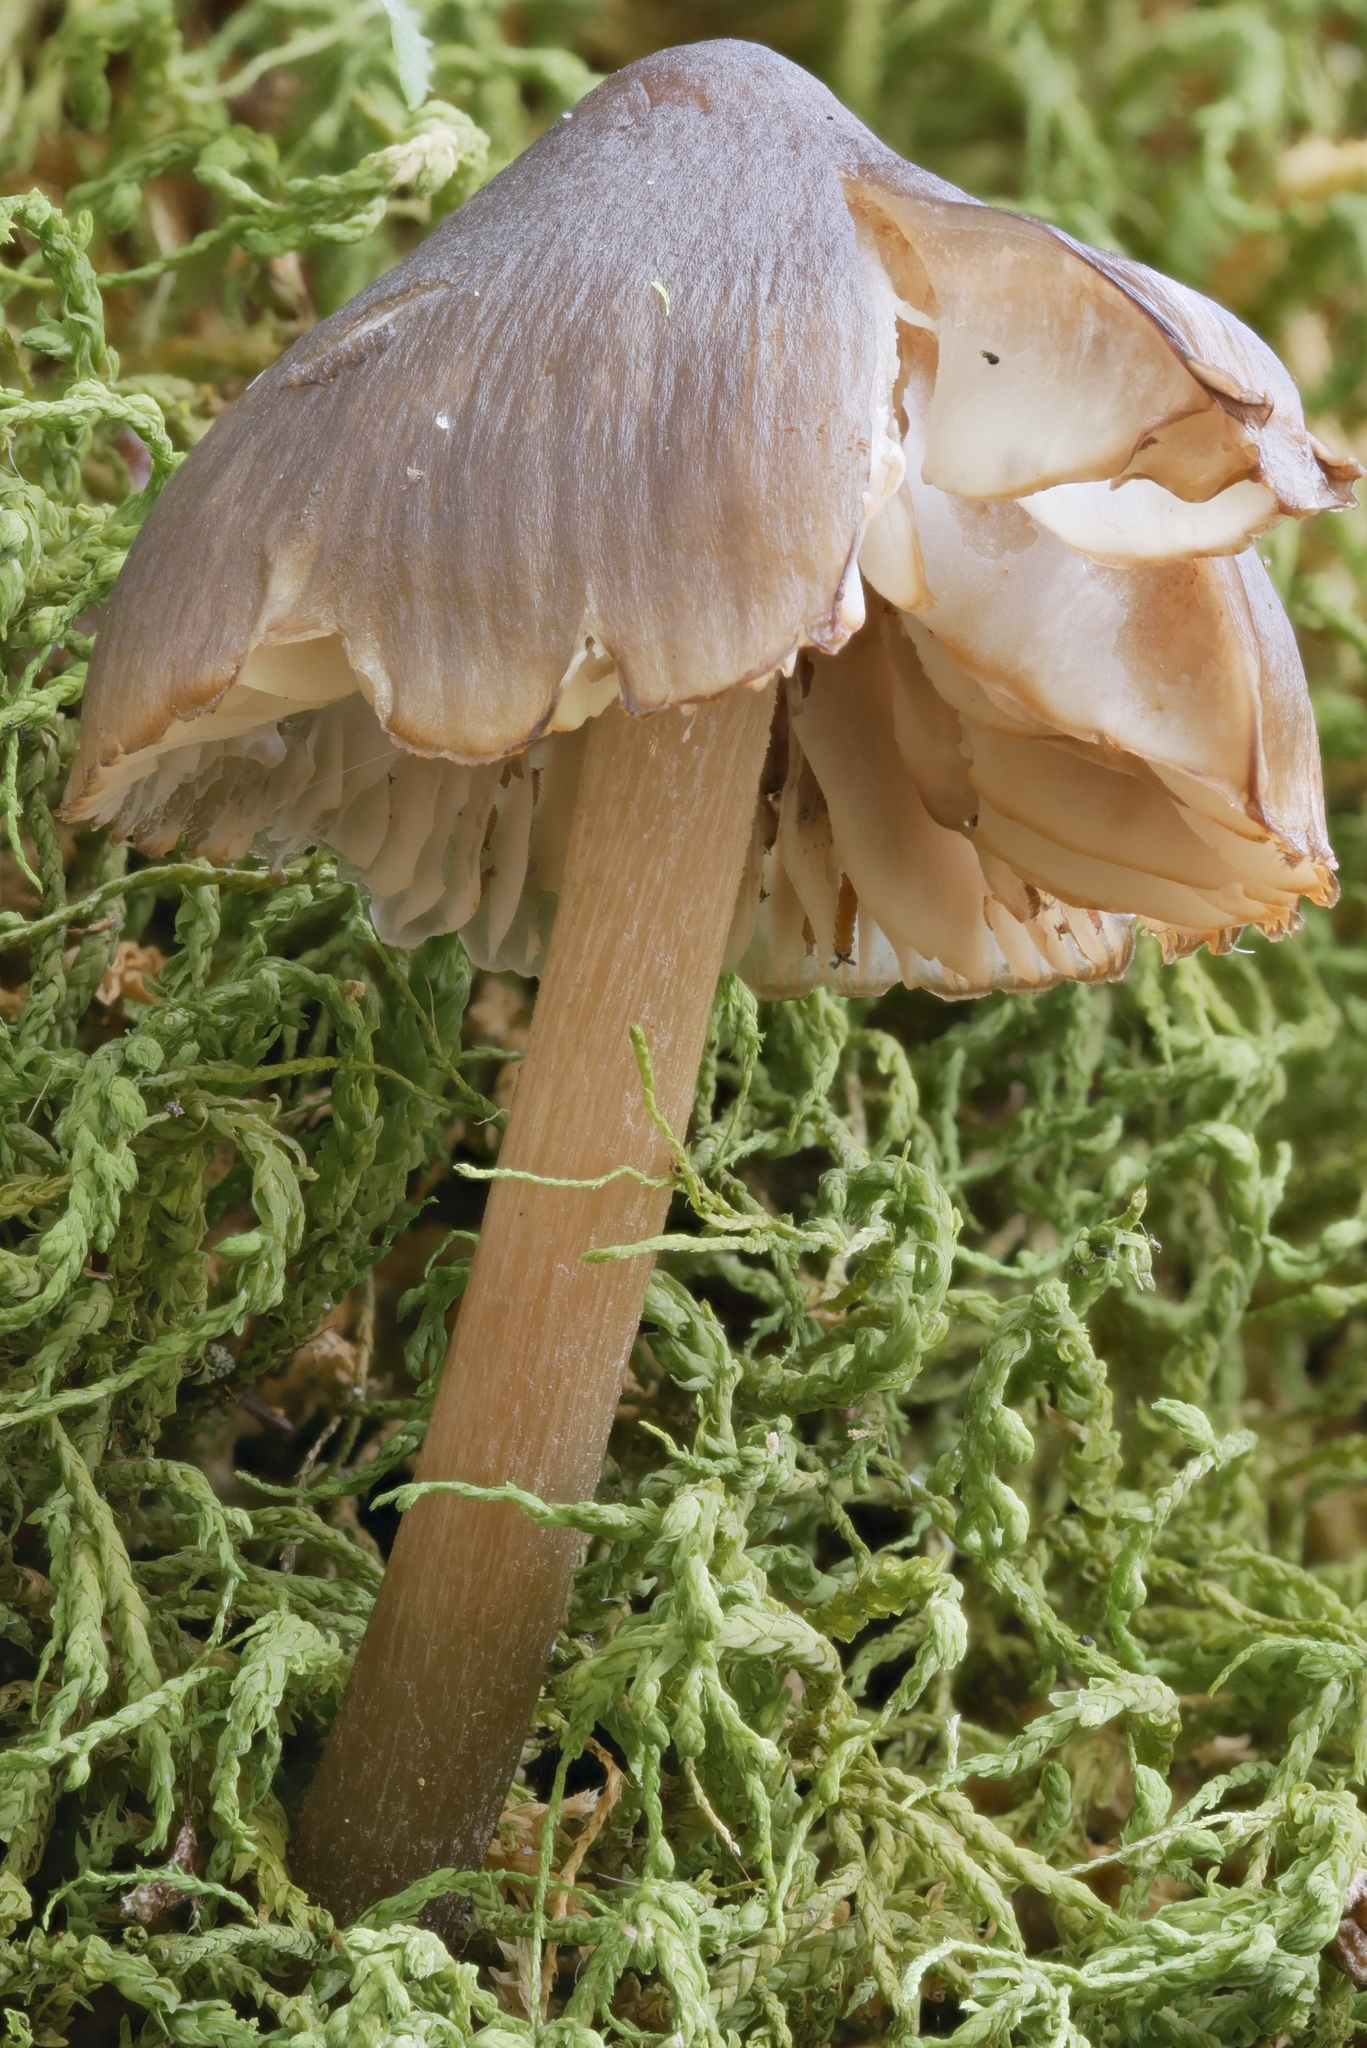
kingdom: Fungi
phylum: Basidiomycota
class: Agaricomycetes
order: Agaricales
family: Mycenaceae
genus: Mycopan
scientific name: Mycopan scabripes
